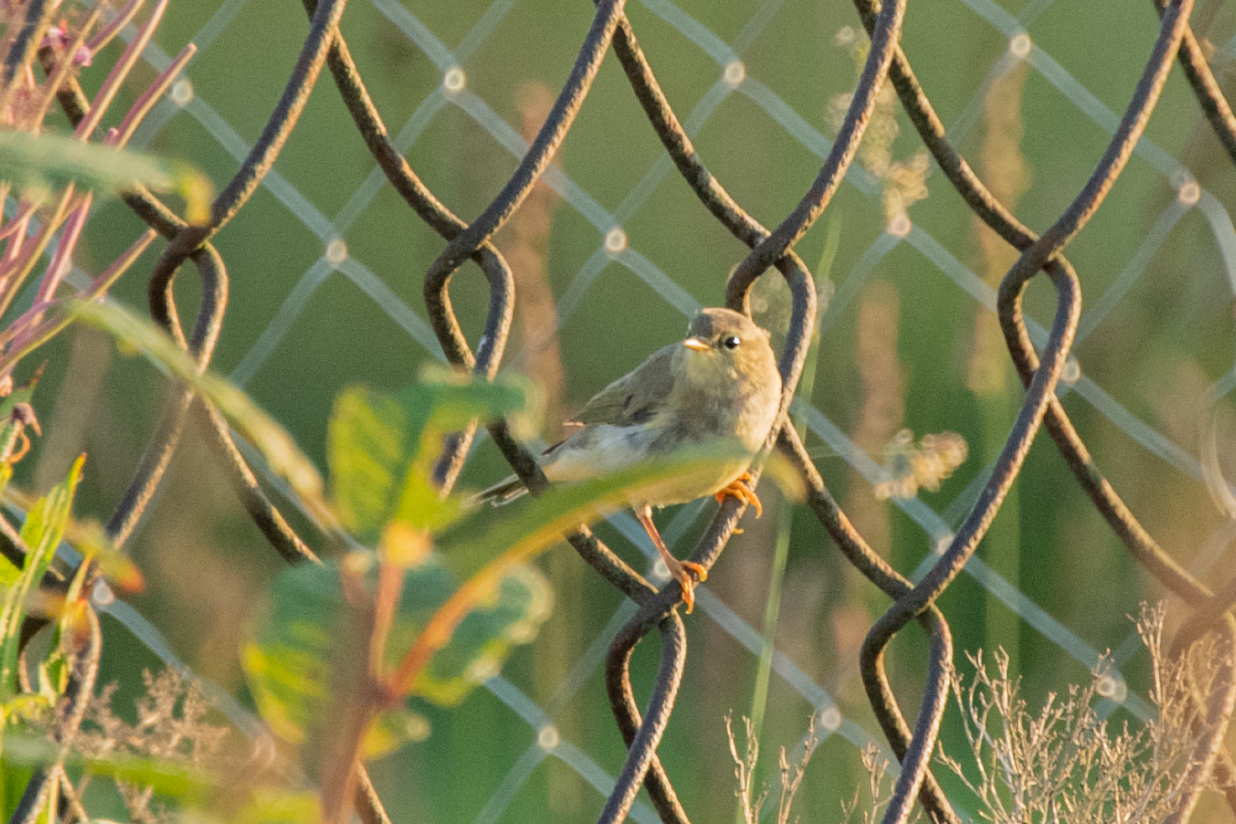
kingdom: Animalia
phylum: Chordata
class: Aves
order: Passeriformes
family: Phylloscopidae
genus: Phylloscopus
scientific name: Phylloscopus trochilus
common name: Willow warbler
